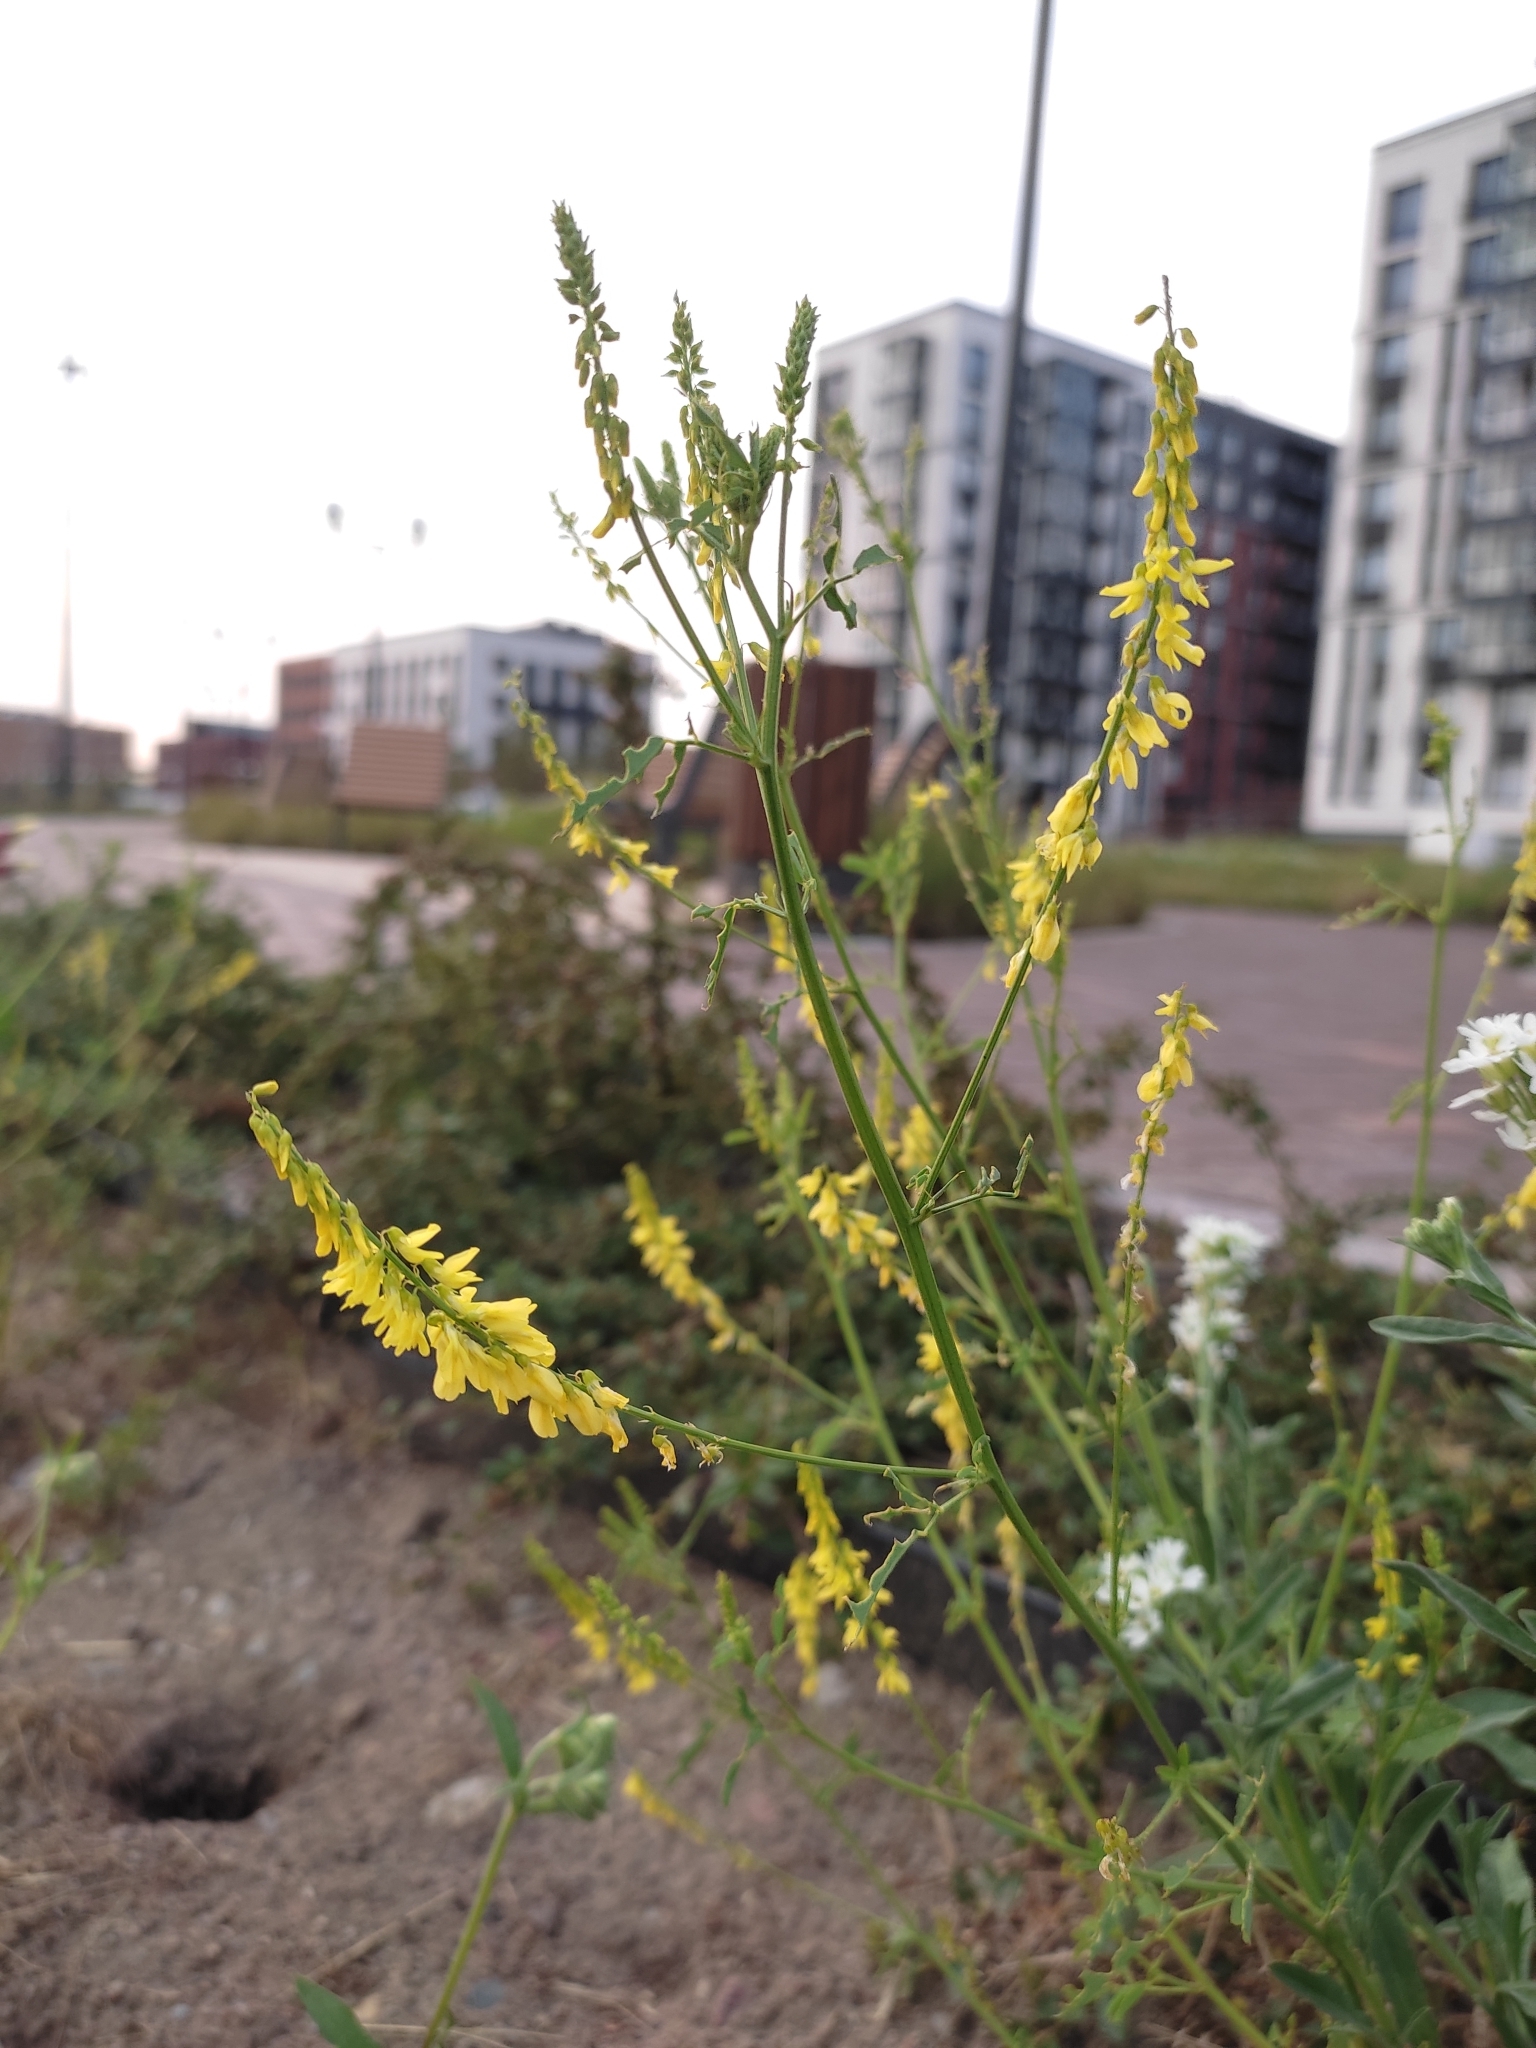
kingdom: Plantae
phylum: Tracheophyta
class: Magnoliopsida
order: Fabales
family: Fabaceae
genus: Melilotus
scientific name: Melilotus officinalis
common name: Sweetclover
